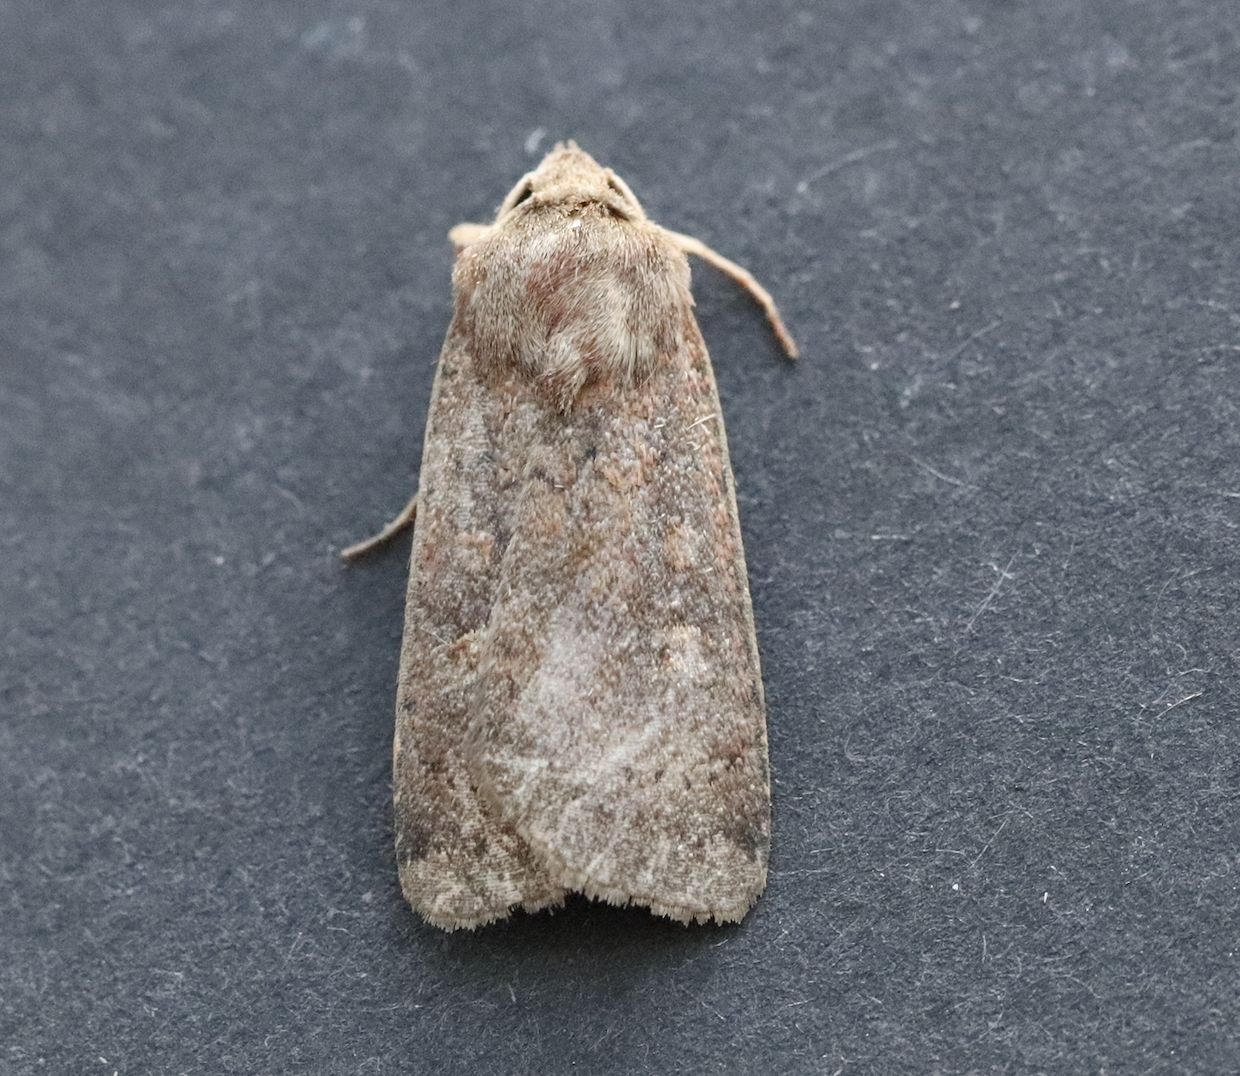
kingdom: Animalia
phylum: Arthropoda
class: Insecta
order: Lepidoptera
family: Noctuidae
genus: Xestia
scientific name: Xestia xanthographa
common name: Square-spot rustic
